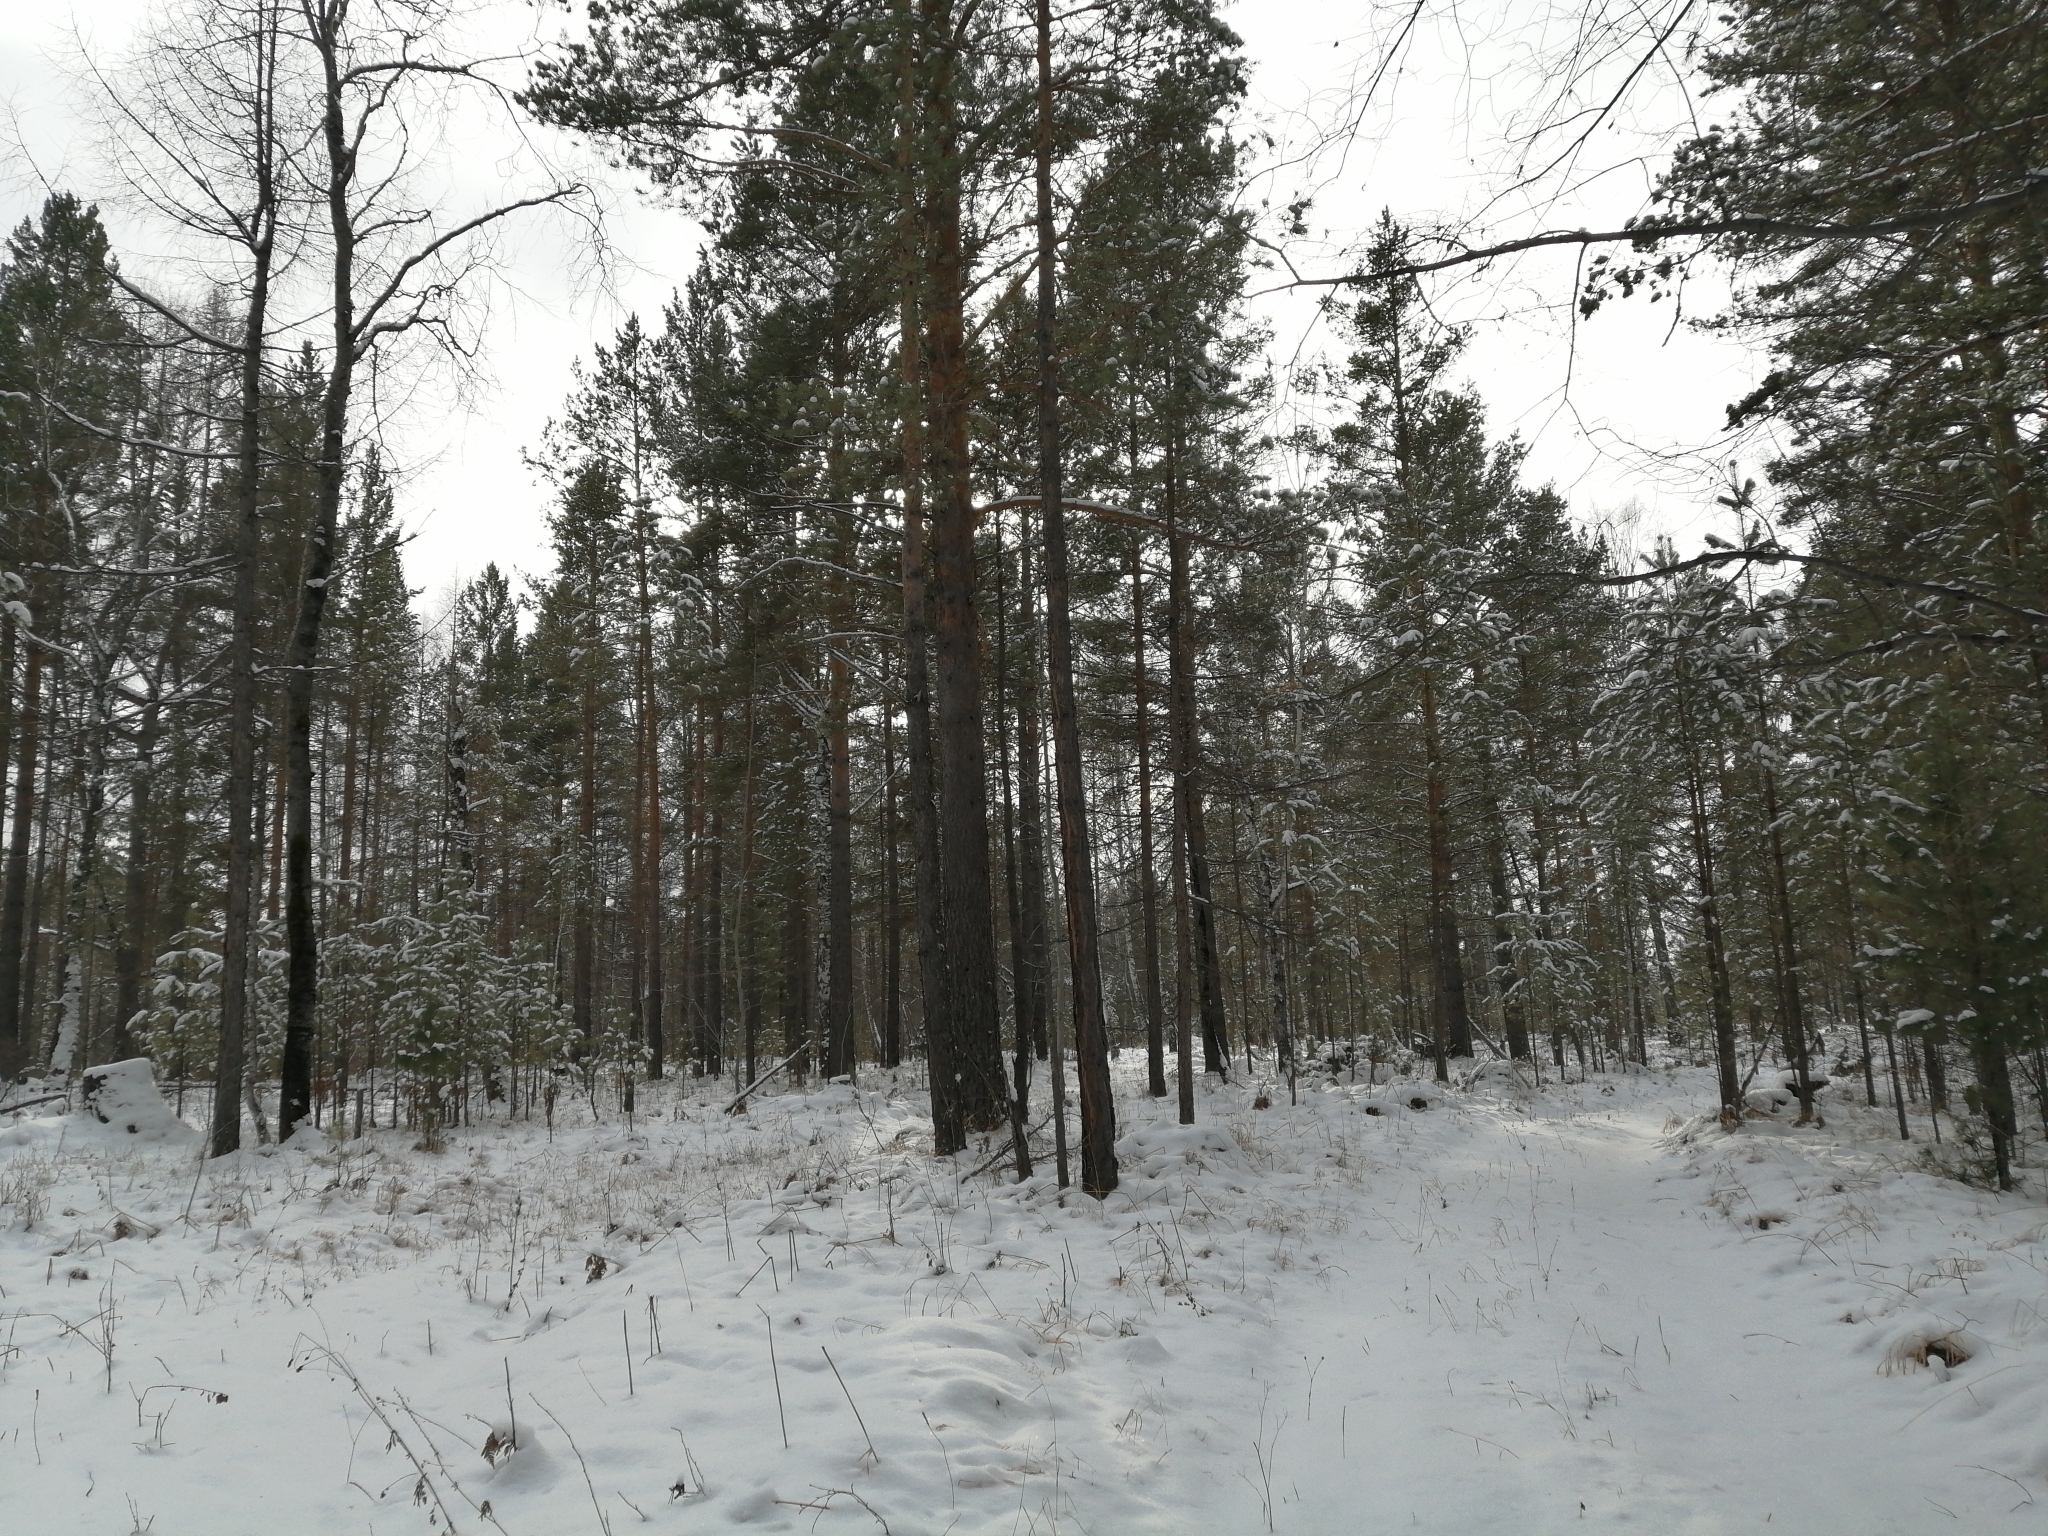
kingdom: Plantae
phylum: Tracheophyta
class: Pinopsida
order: Pinales
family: Pinaceae
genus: Pinus
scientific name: Pinus sylvestris
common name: Scots pine
